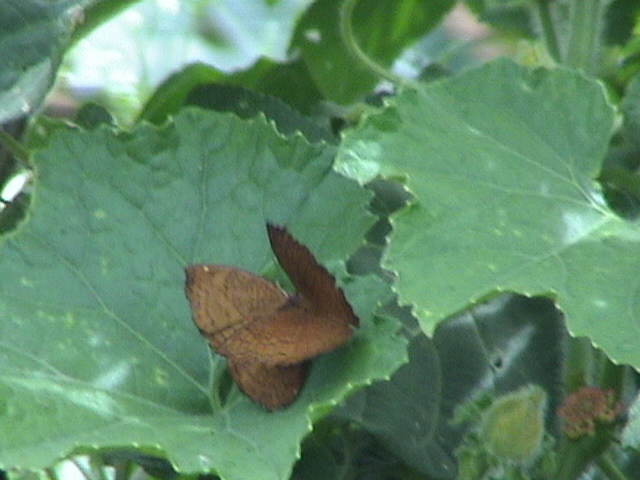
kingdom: Animalia
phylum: Arthropoda
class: Insecta
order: Lepidoptera
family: Nymphalidae
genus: Ariadne
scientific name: Ariadne merione
